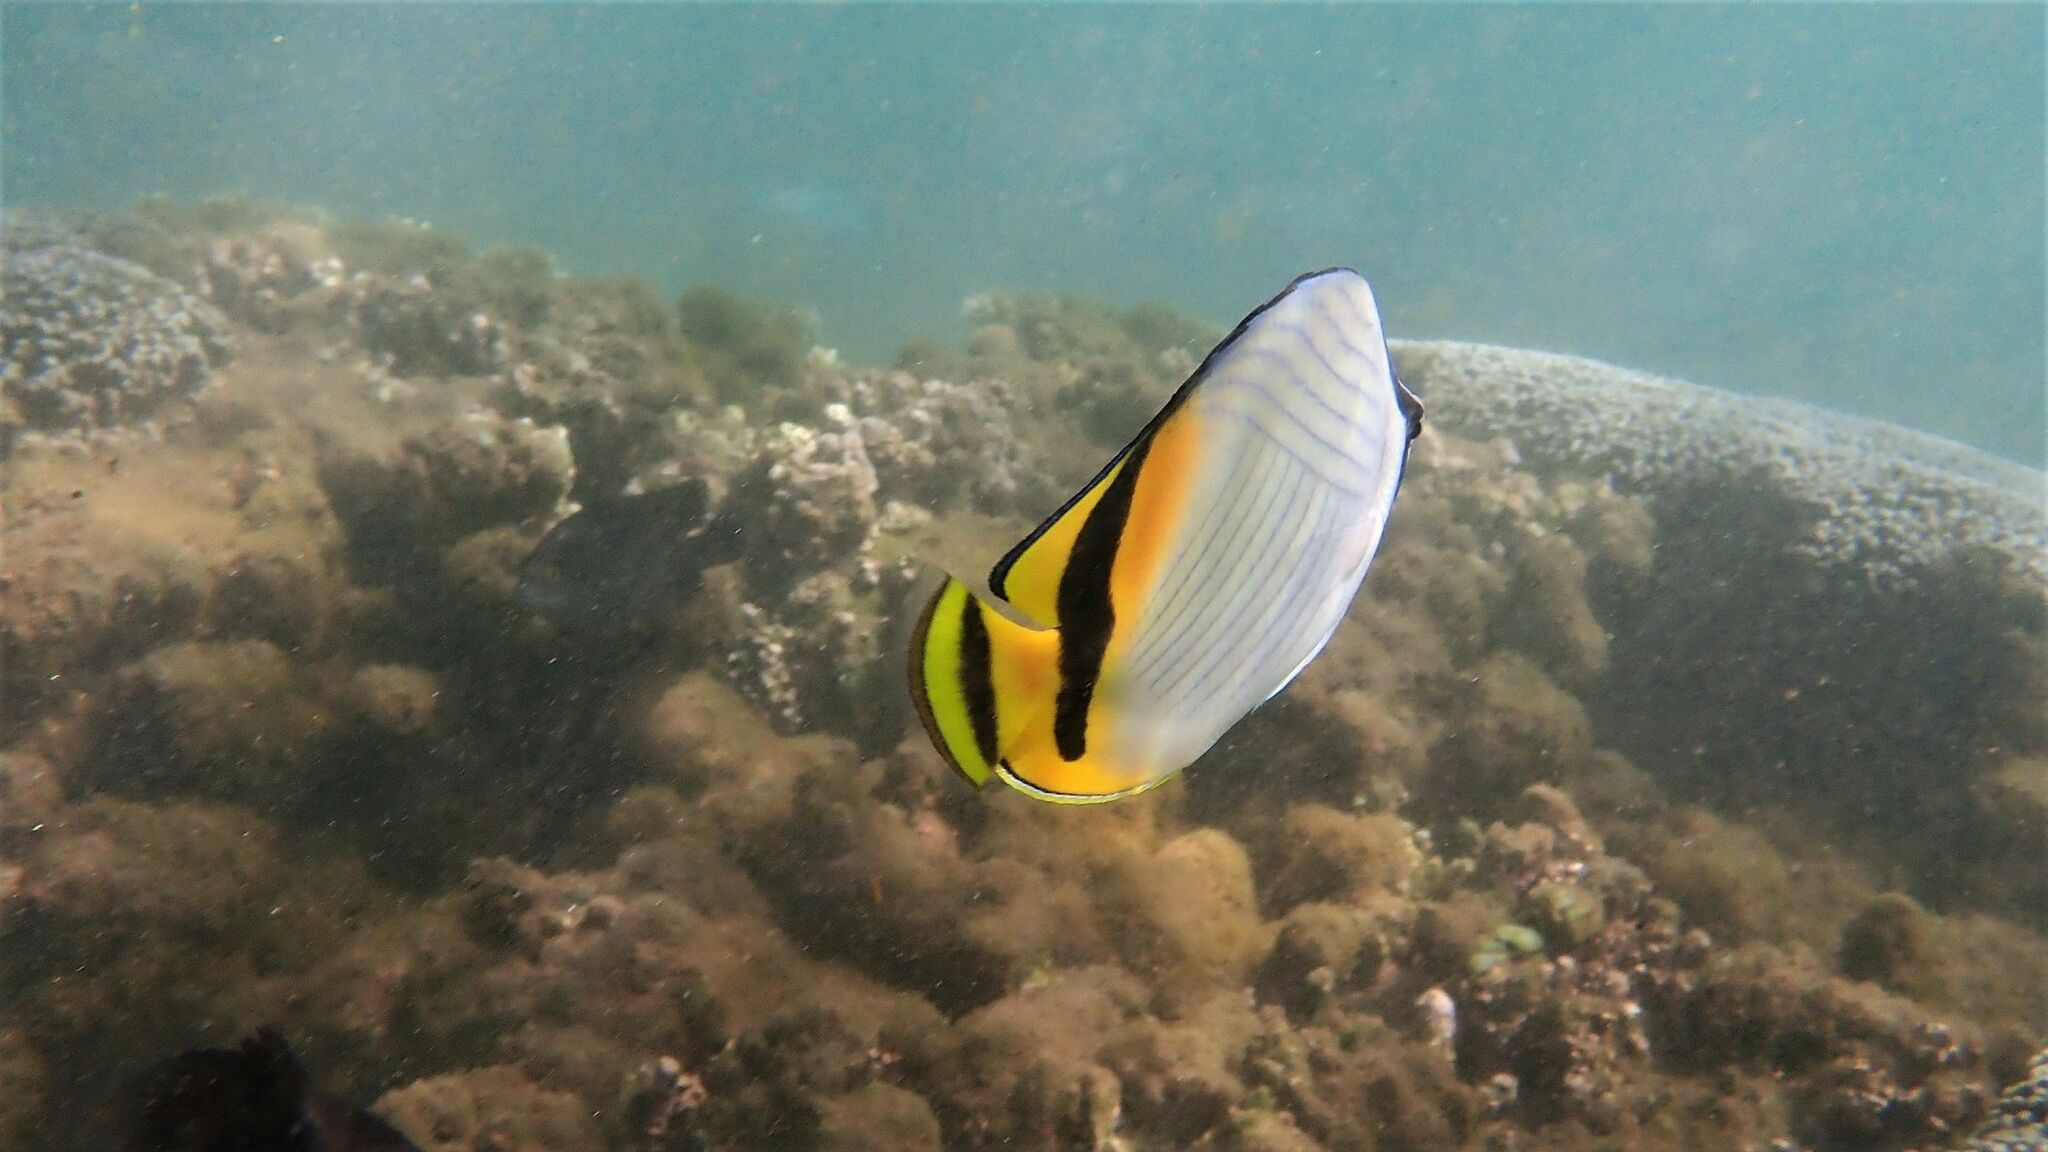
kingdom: Animalia
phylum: Chordata
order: Perciformes
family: Chaetodontidae
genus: Chaetodon
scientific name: Chaetodon vagabundus
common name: Vagabond butterflyfish
